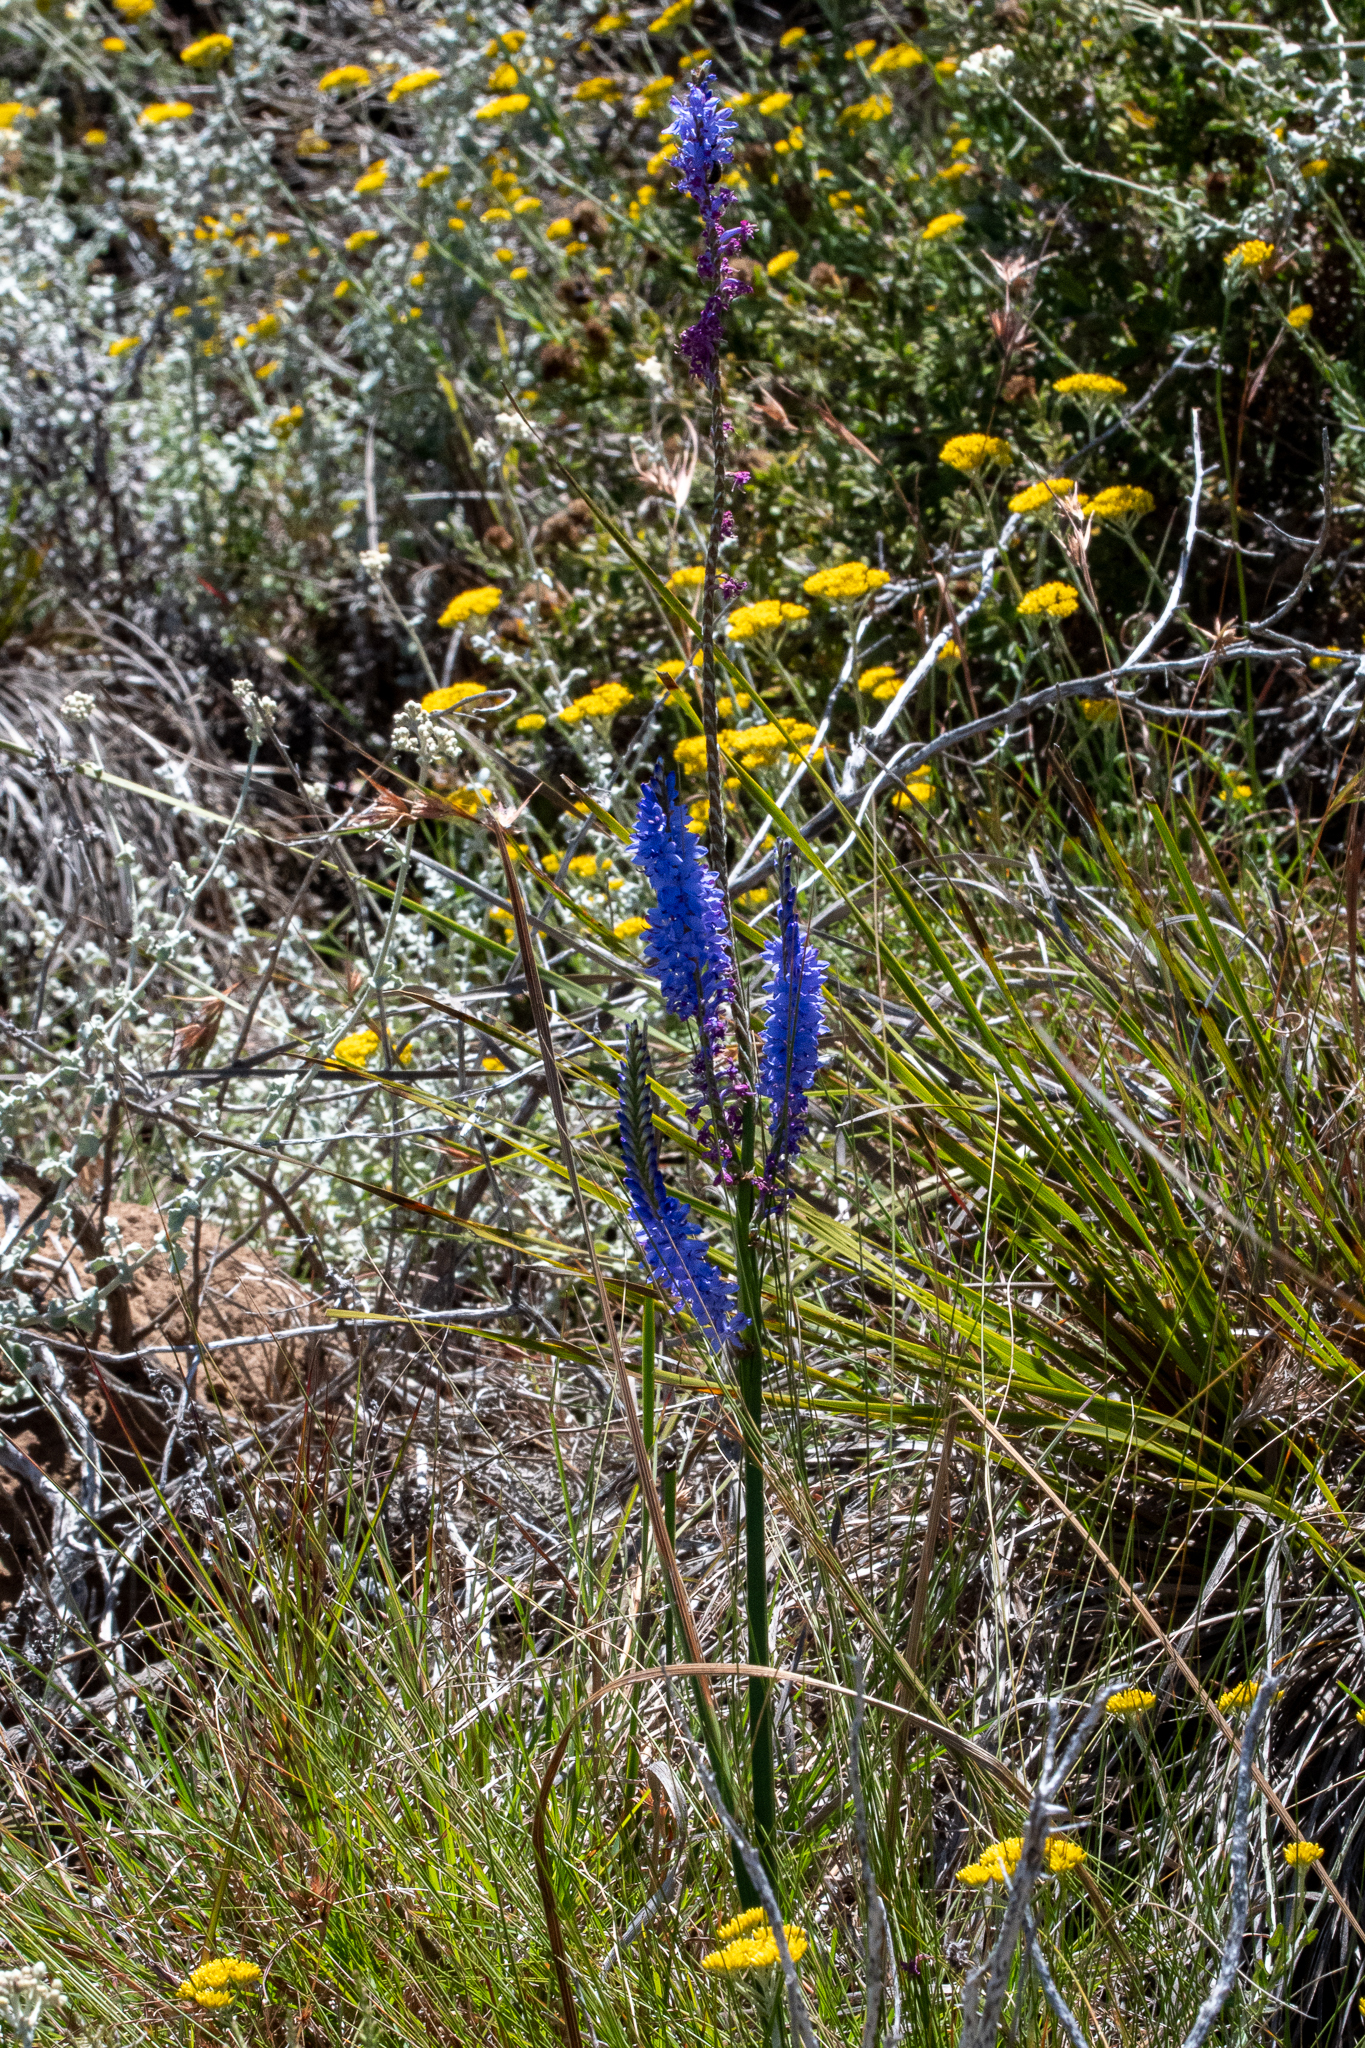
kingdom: Plantae
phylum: Tracheophyta
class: Liliopsida
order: Asparagales
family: Iridaceae
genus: Micranthus
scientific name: Micranthus alopecuroides
